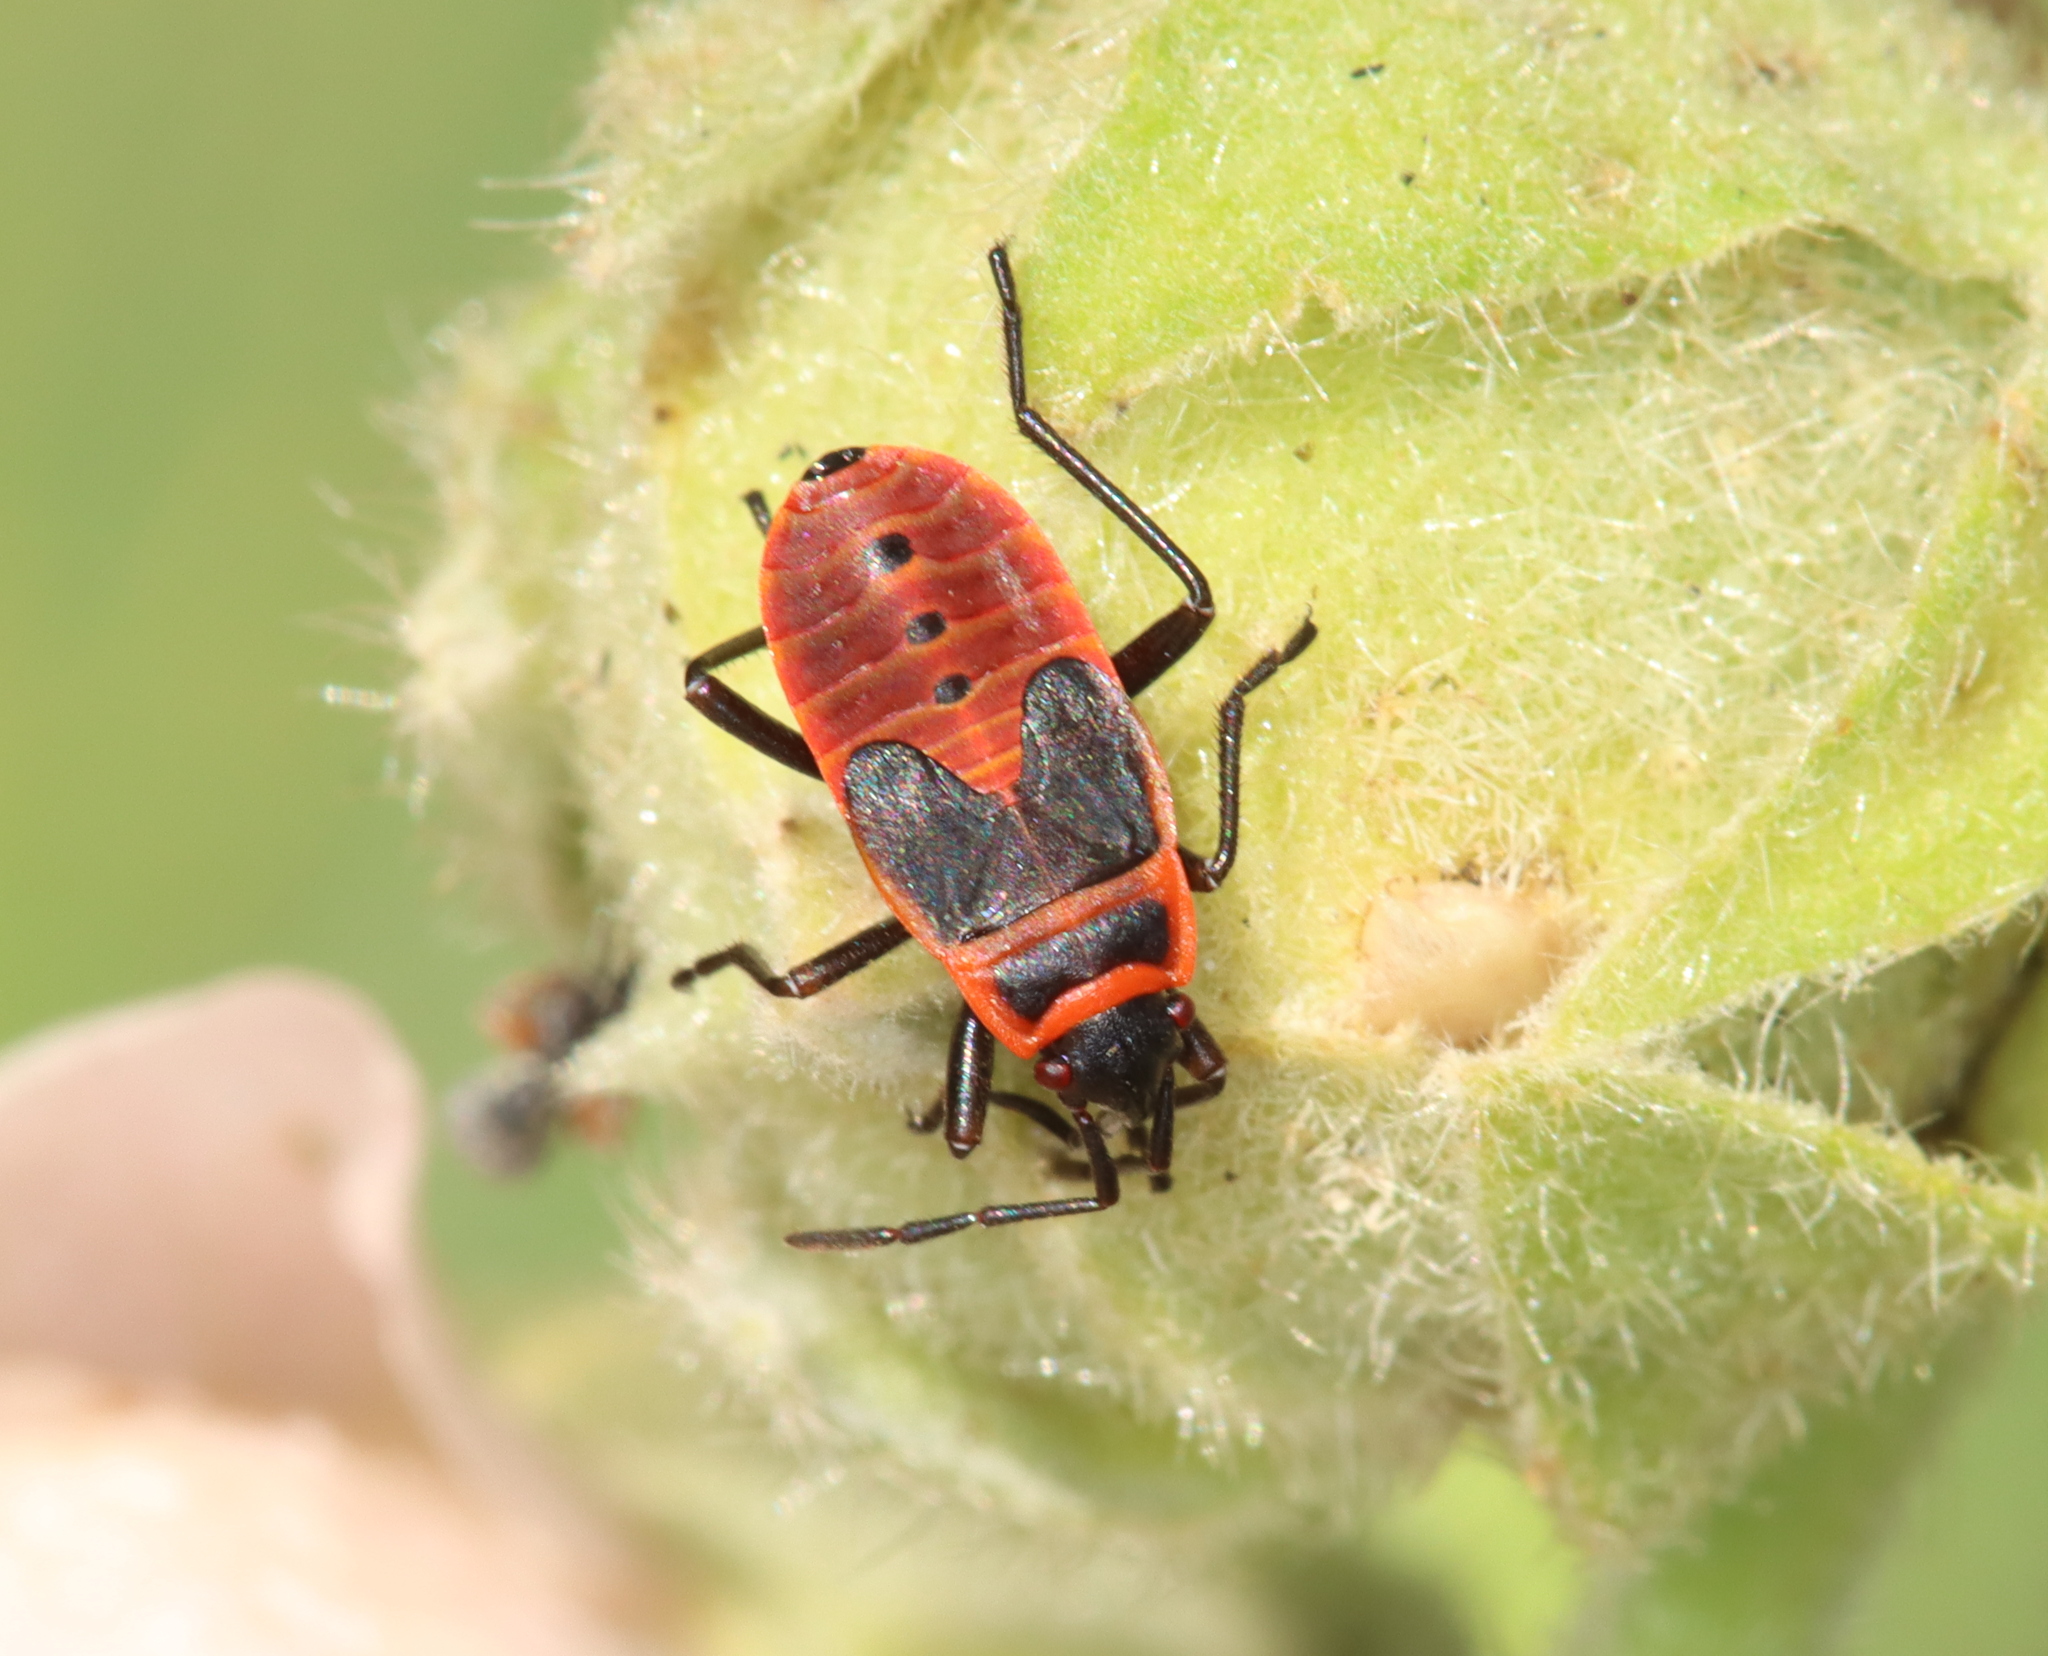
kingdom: Animalia
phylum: Arthropoda
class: Insecta
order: Hemiptera
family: Pyrrhocoridae
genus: Pyrrhocoris
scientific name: Pyrrhocoris apterus
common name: Firebug
